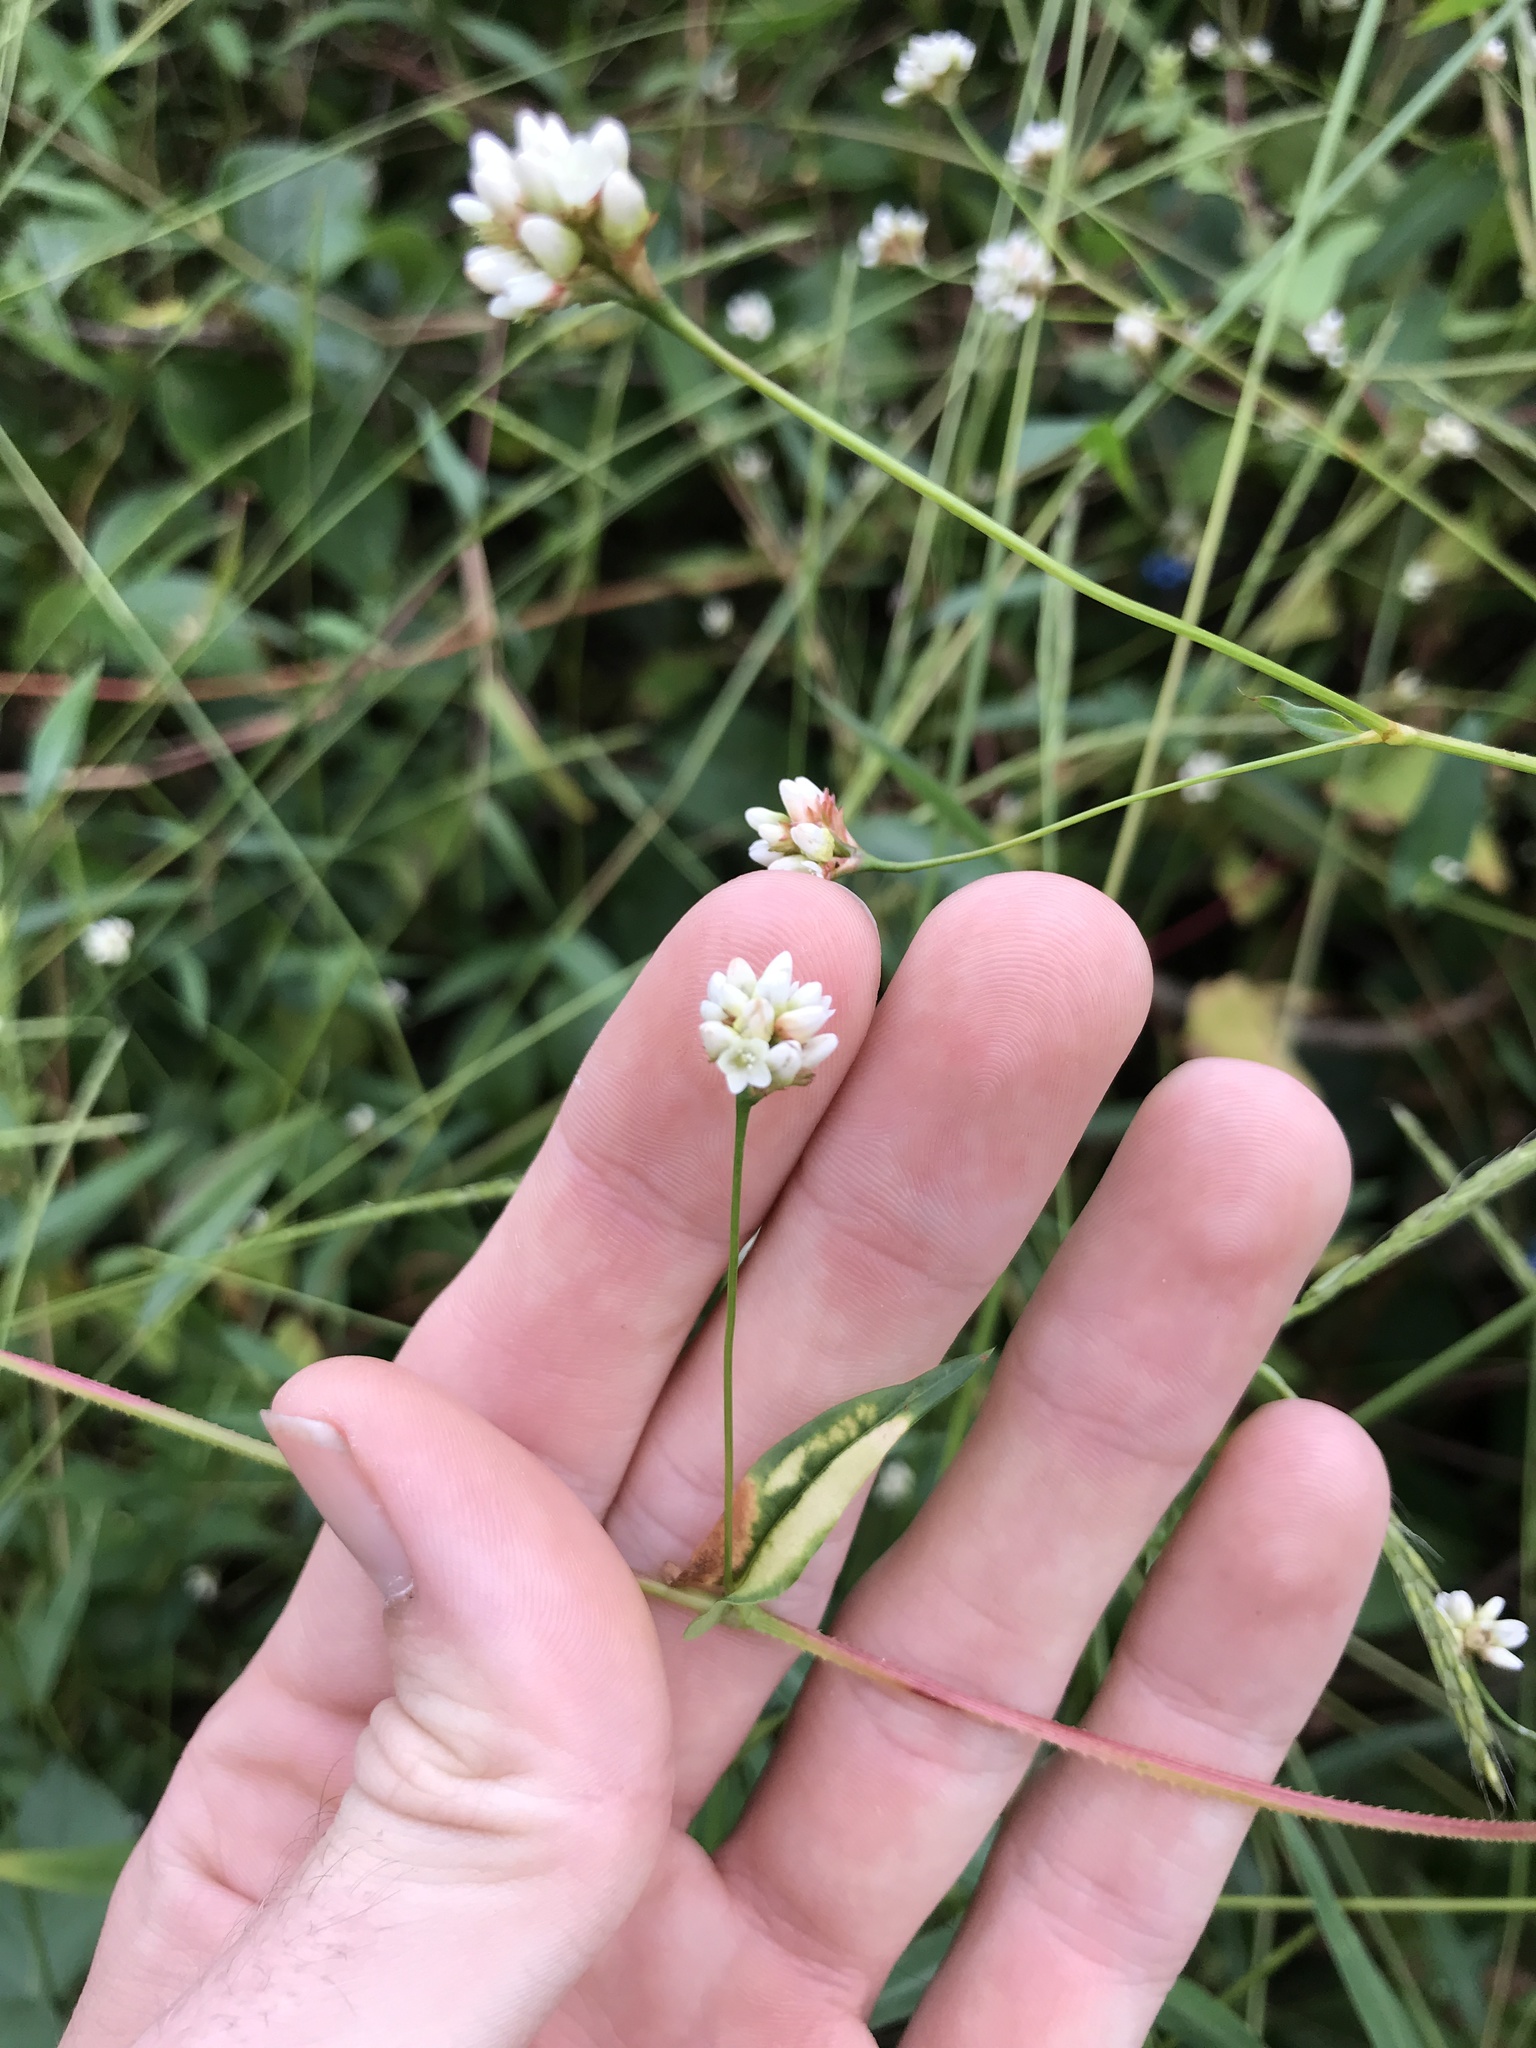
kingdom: Plantae
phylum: Tracheophyta
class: Magnoliopsida
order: Caryophyllales
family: Polygonaceae
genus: Persicaria
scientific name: Persicaria sagittata
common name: American tearthumb
